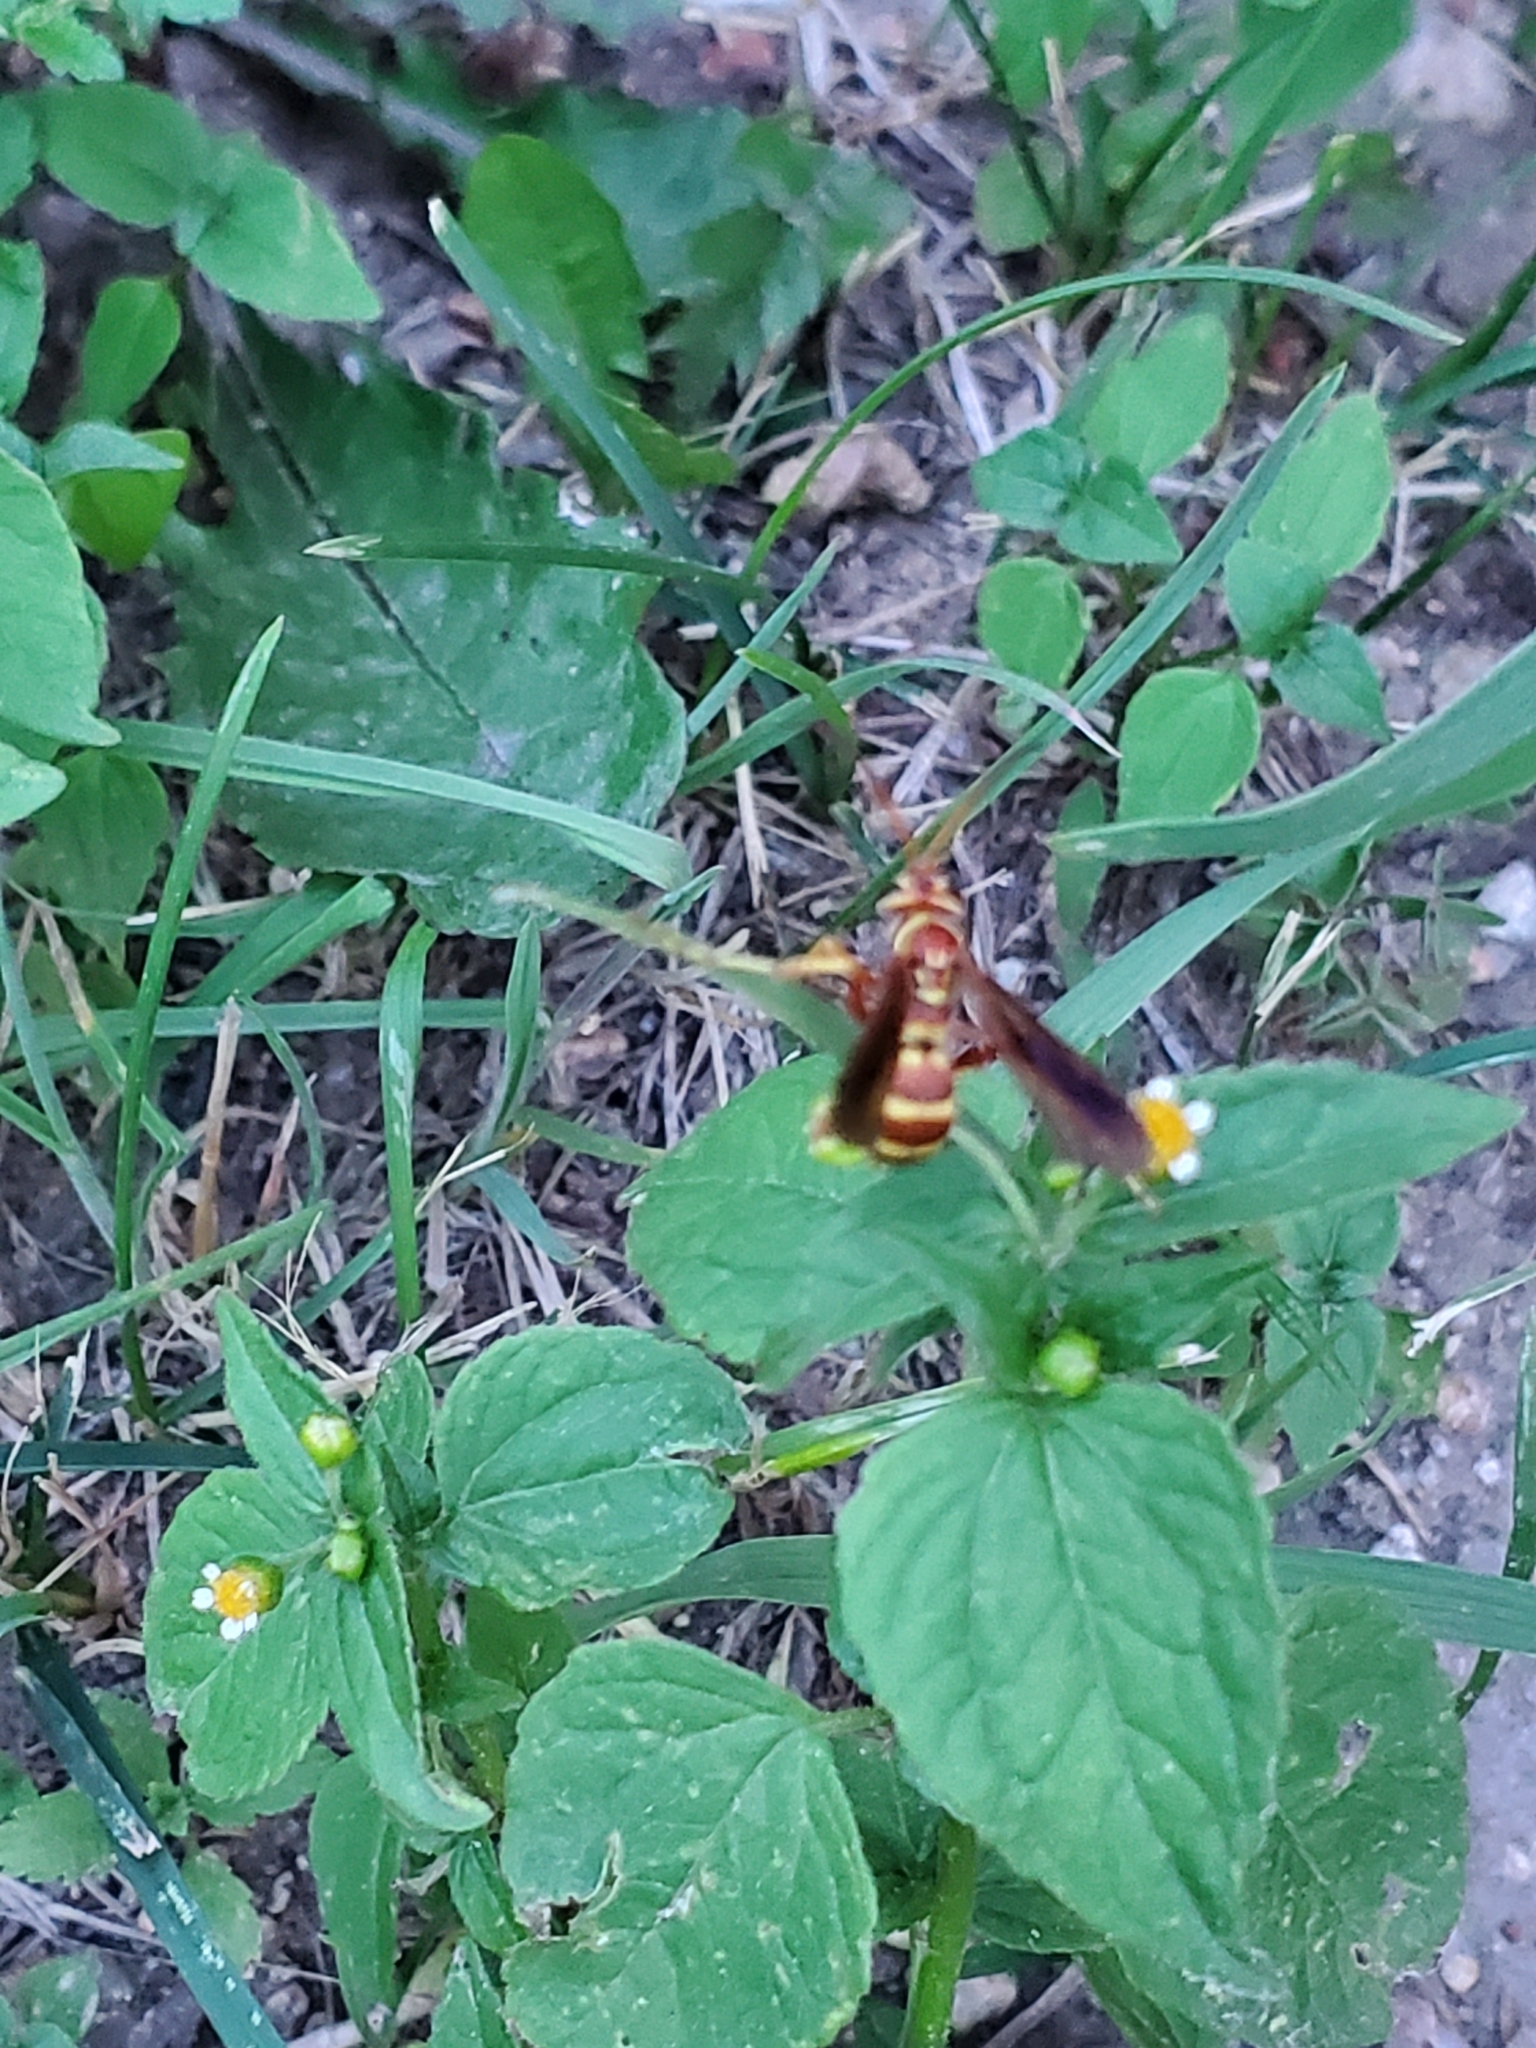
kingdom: Animalia
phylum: Arthropoda
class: Insecta
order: Hymenoptera
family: Pompilidae
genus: Poecilopompilus
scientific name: Poecilopompilus interruptus
